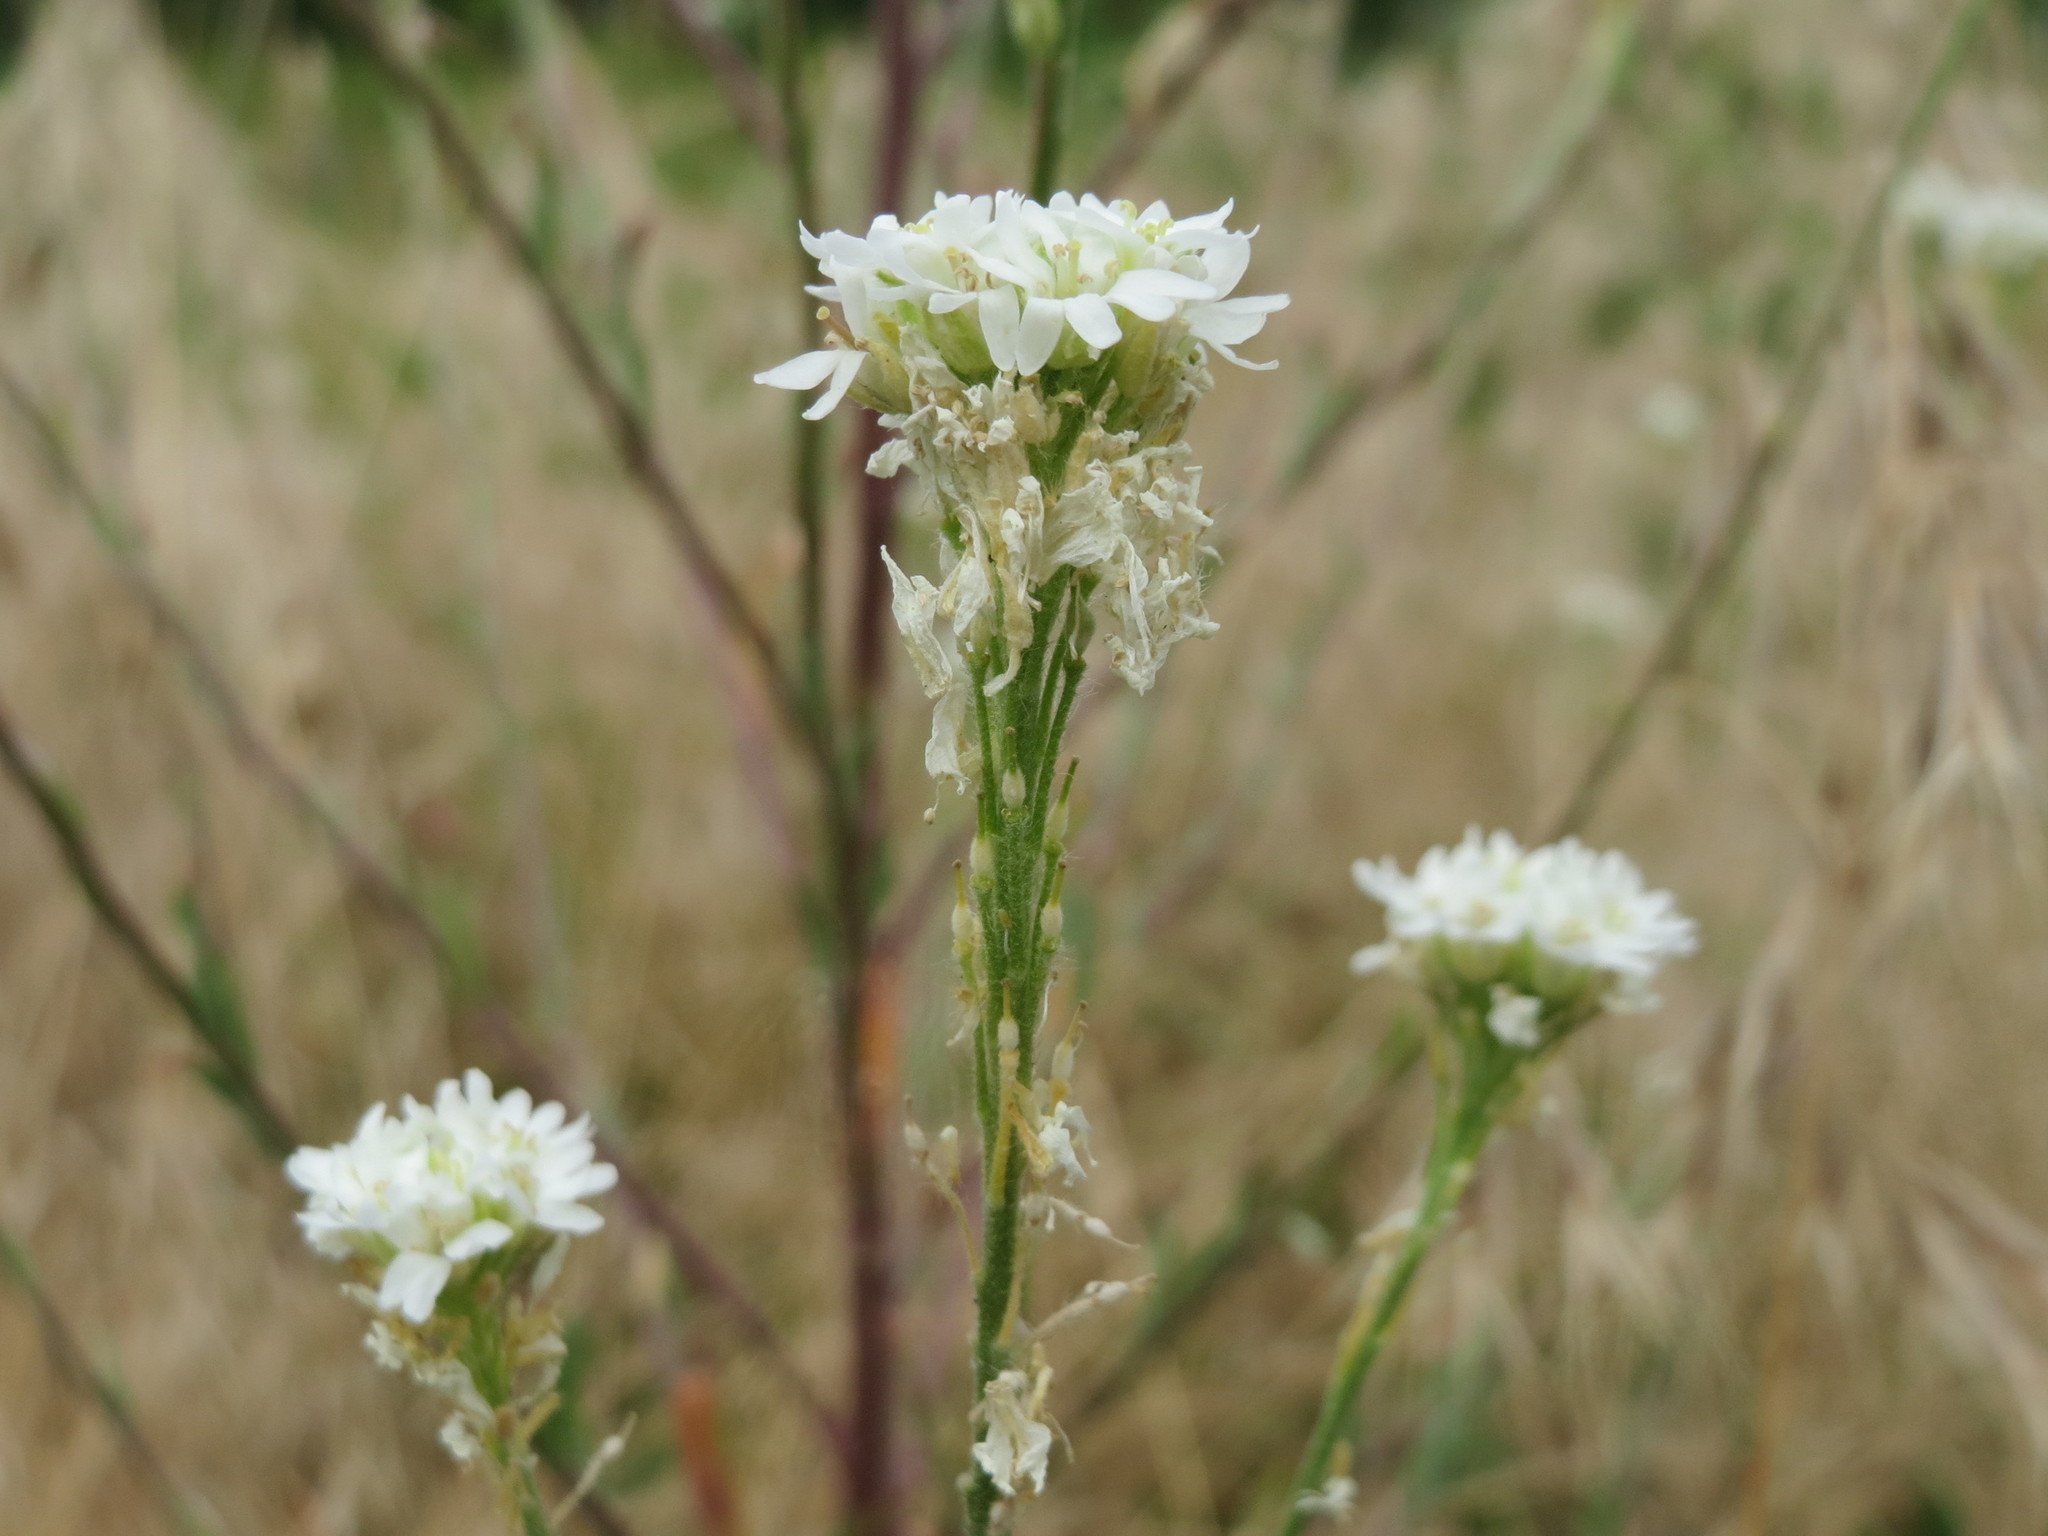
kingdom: Plantae
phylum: Tracheophyta
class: Magnoliopsida
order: Brassicales
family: Brassicaceae
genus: Berteroa
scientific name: Berteroa incana
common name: Hoary alison
